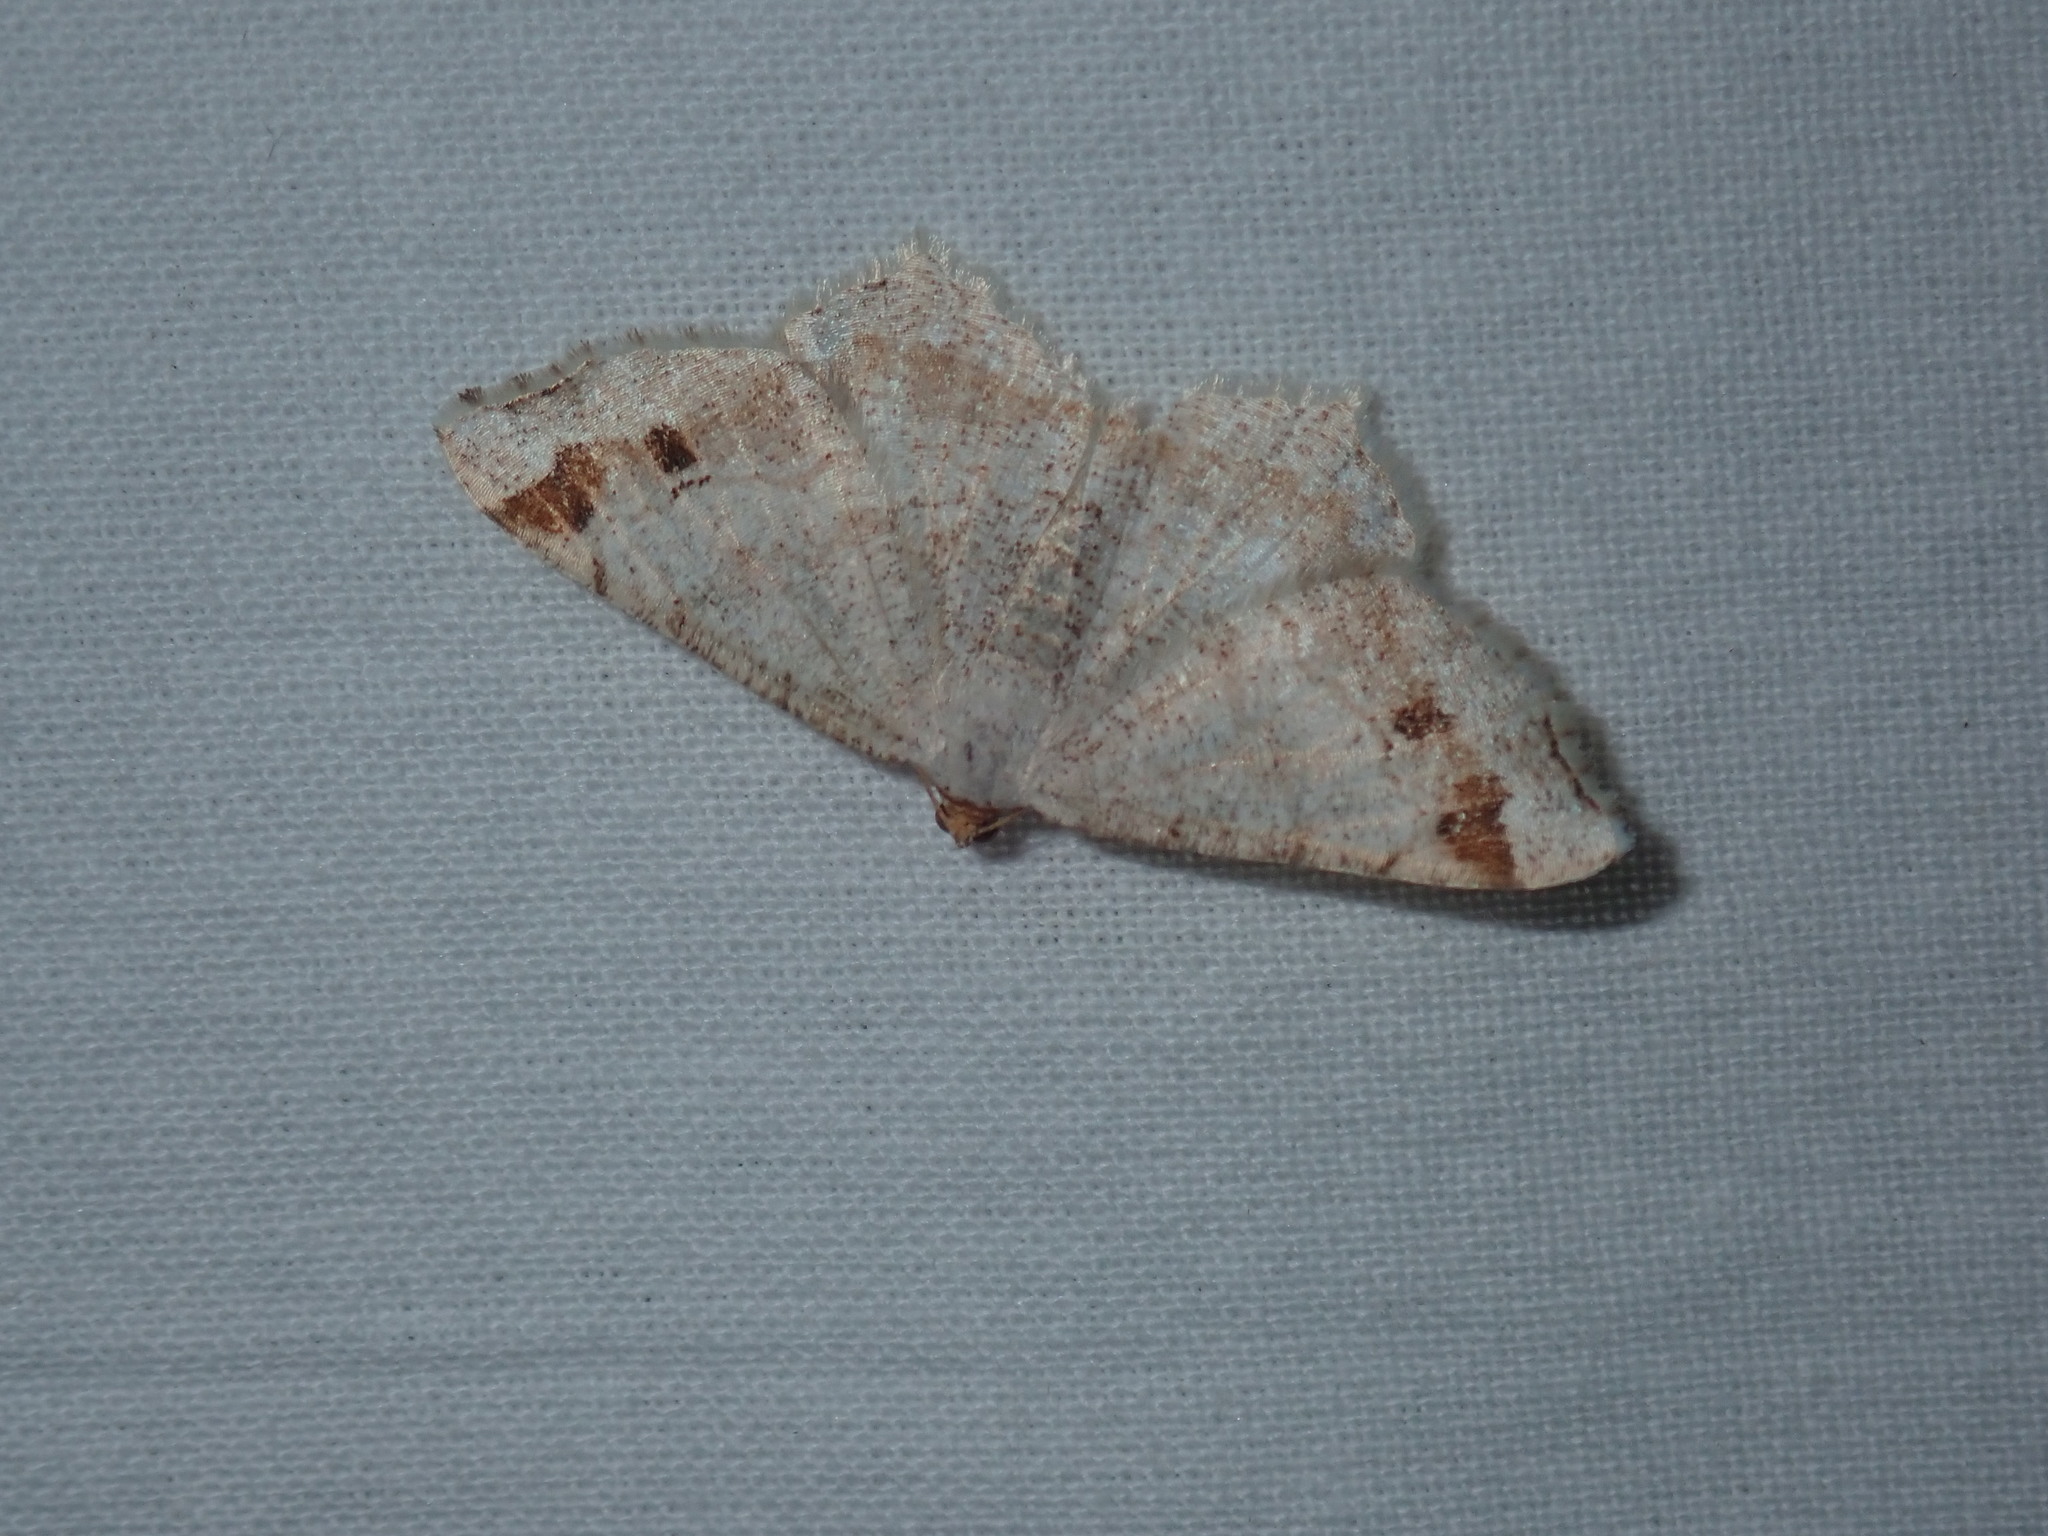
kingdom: Animalia
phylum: Arthropoda
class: Insecta
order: Lepidoptera
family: Geometridae
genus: Macaria
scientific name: Macaria bisignata
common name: Red-headed inchworm
